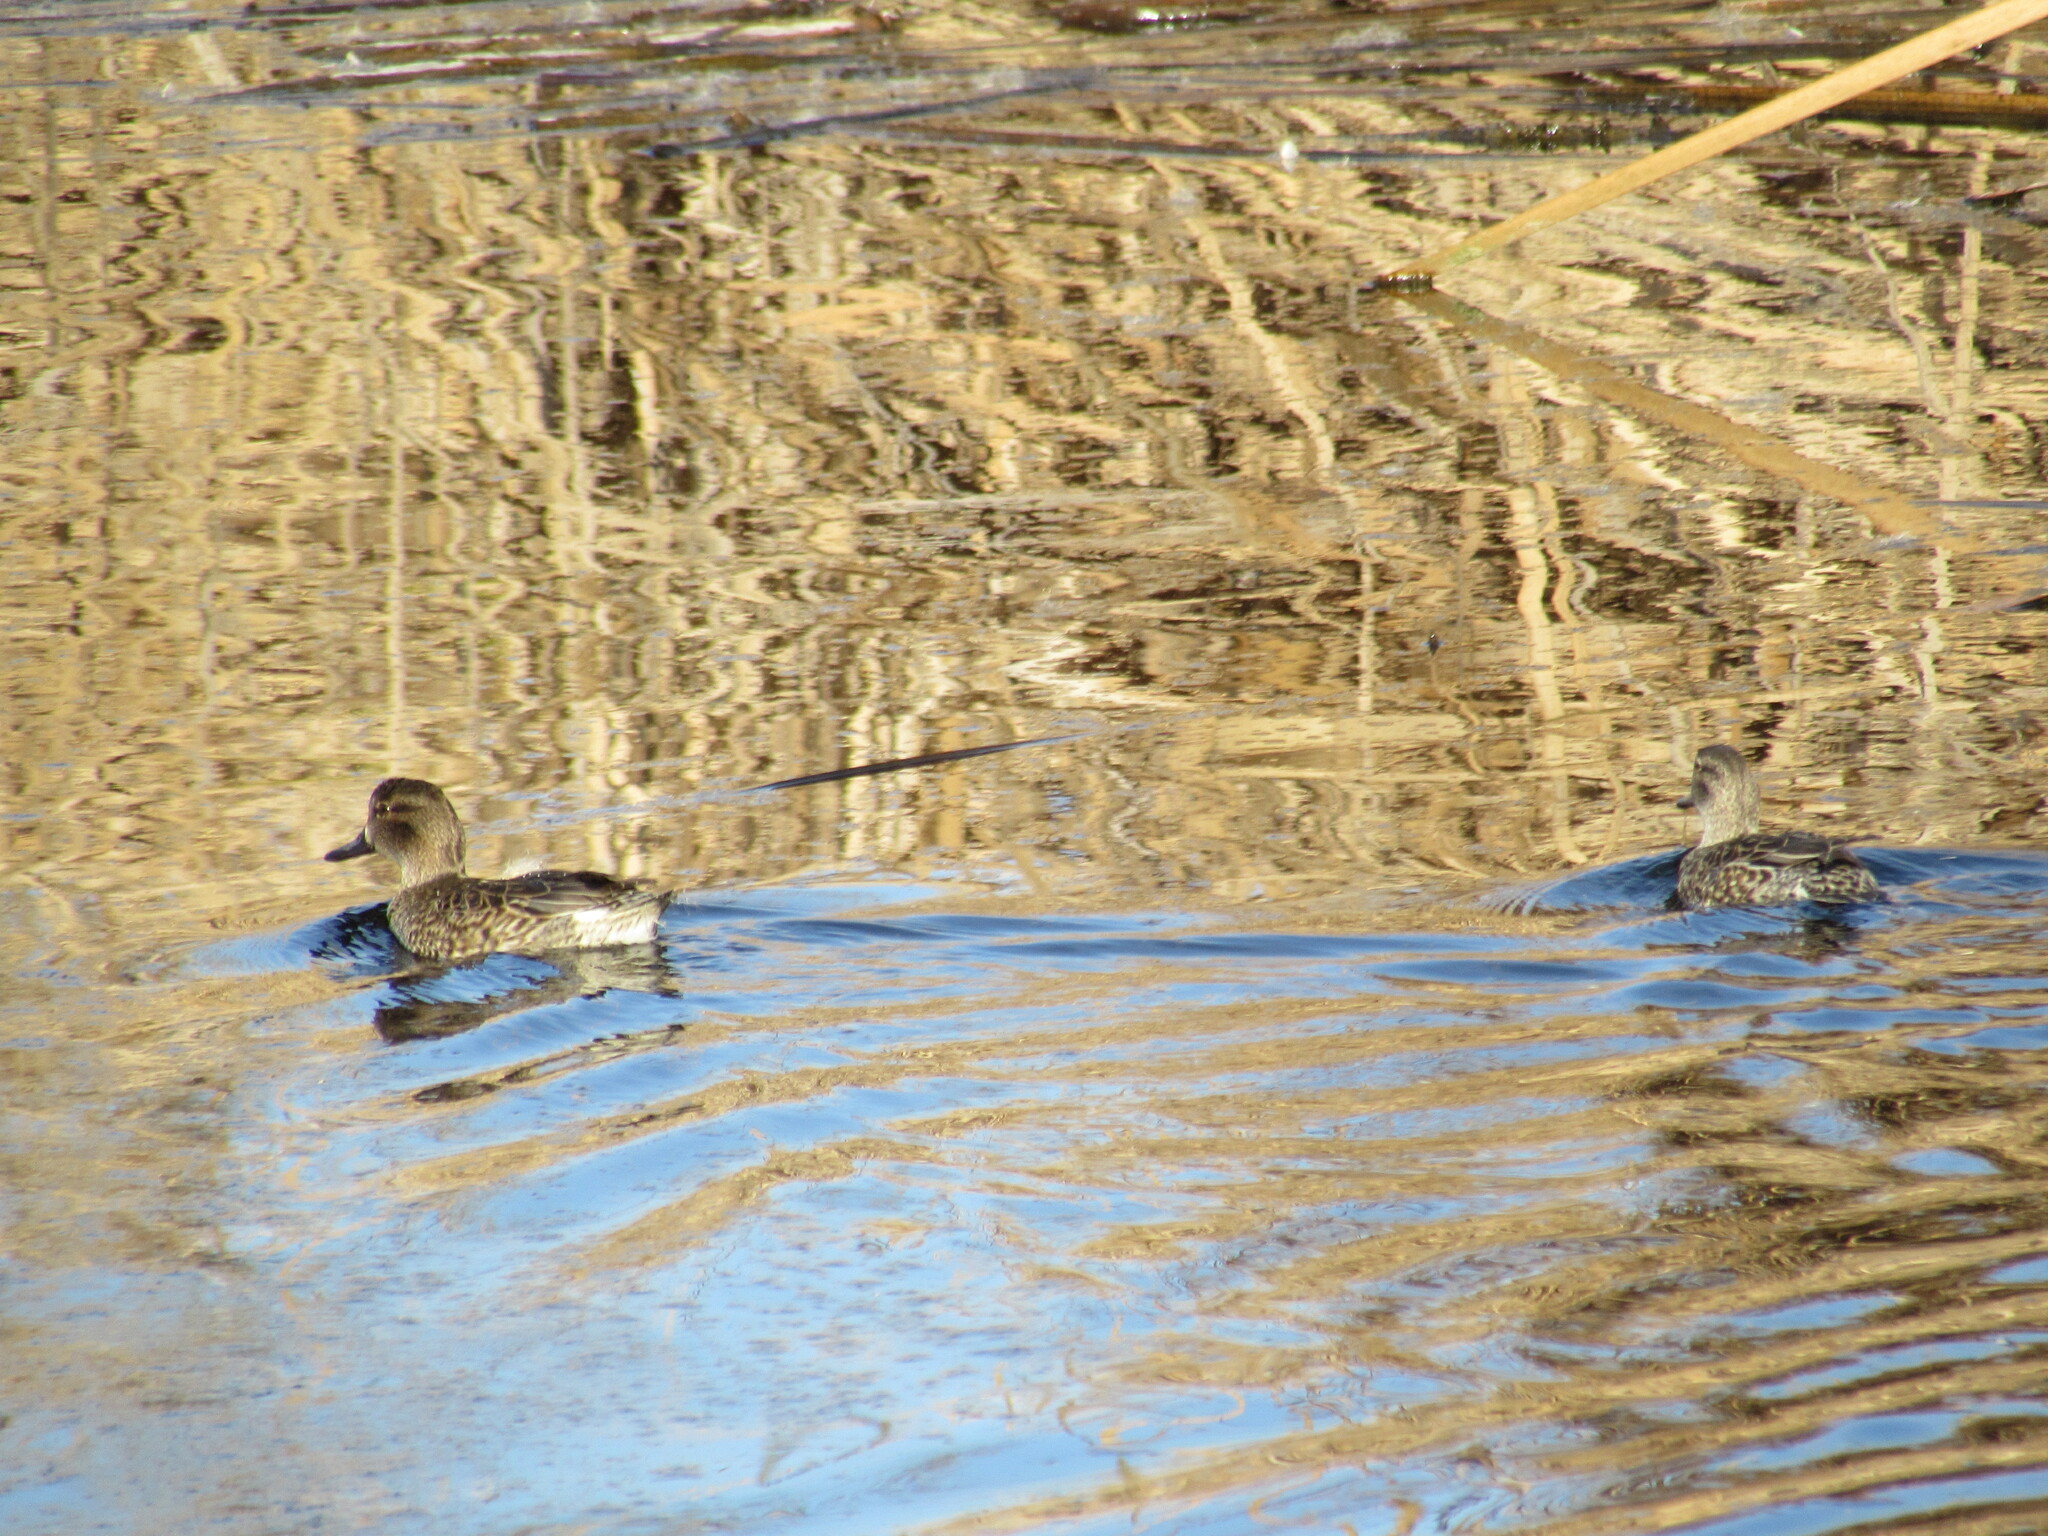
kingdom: Animalia
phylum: Chordata
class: Aves
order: Anseriformes
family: Anatidae
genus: Anas
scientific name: Anas crecca
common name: Eurasian teal
